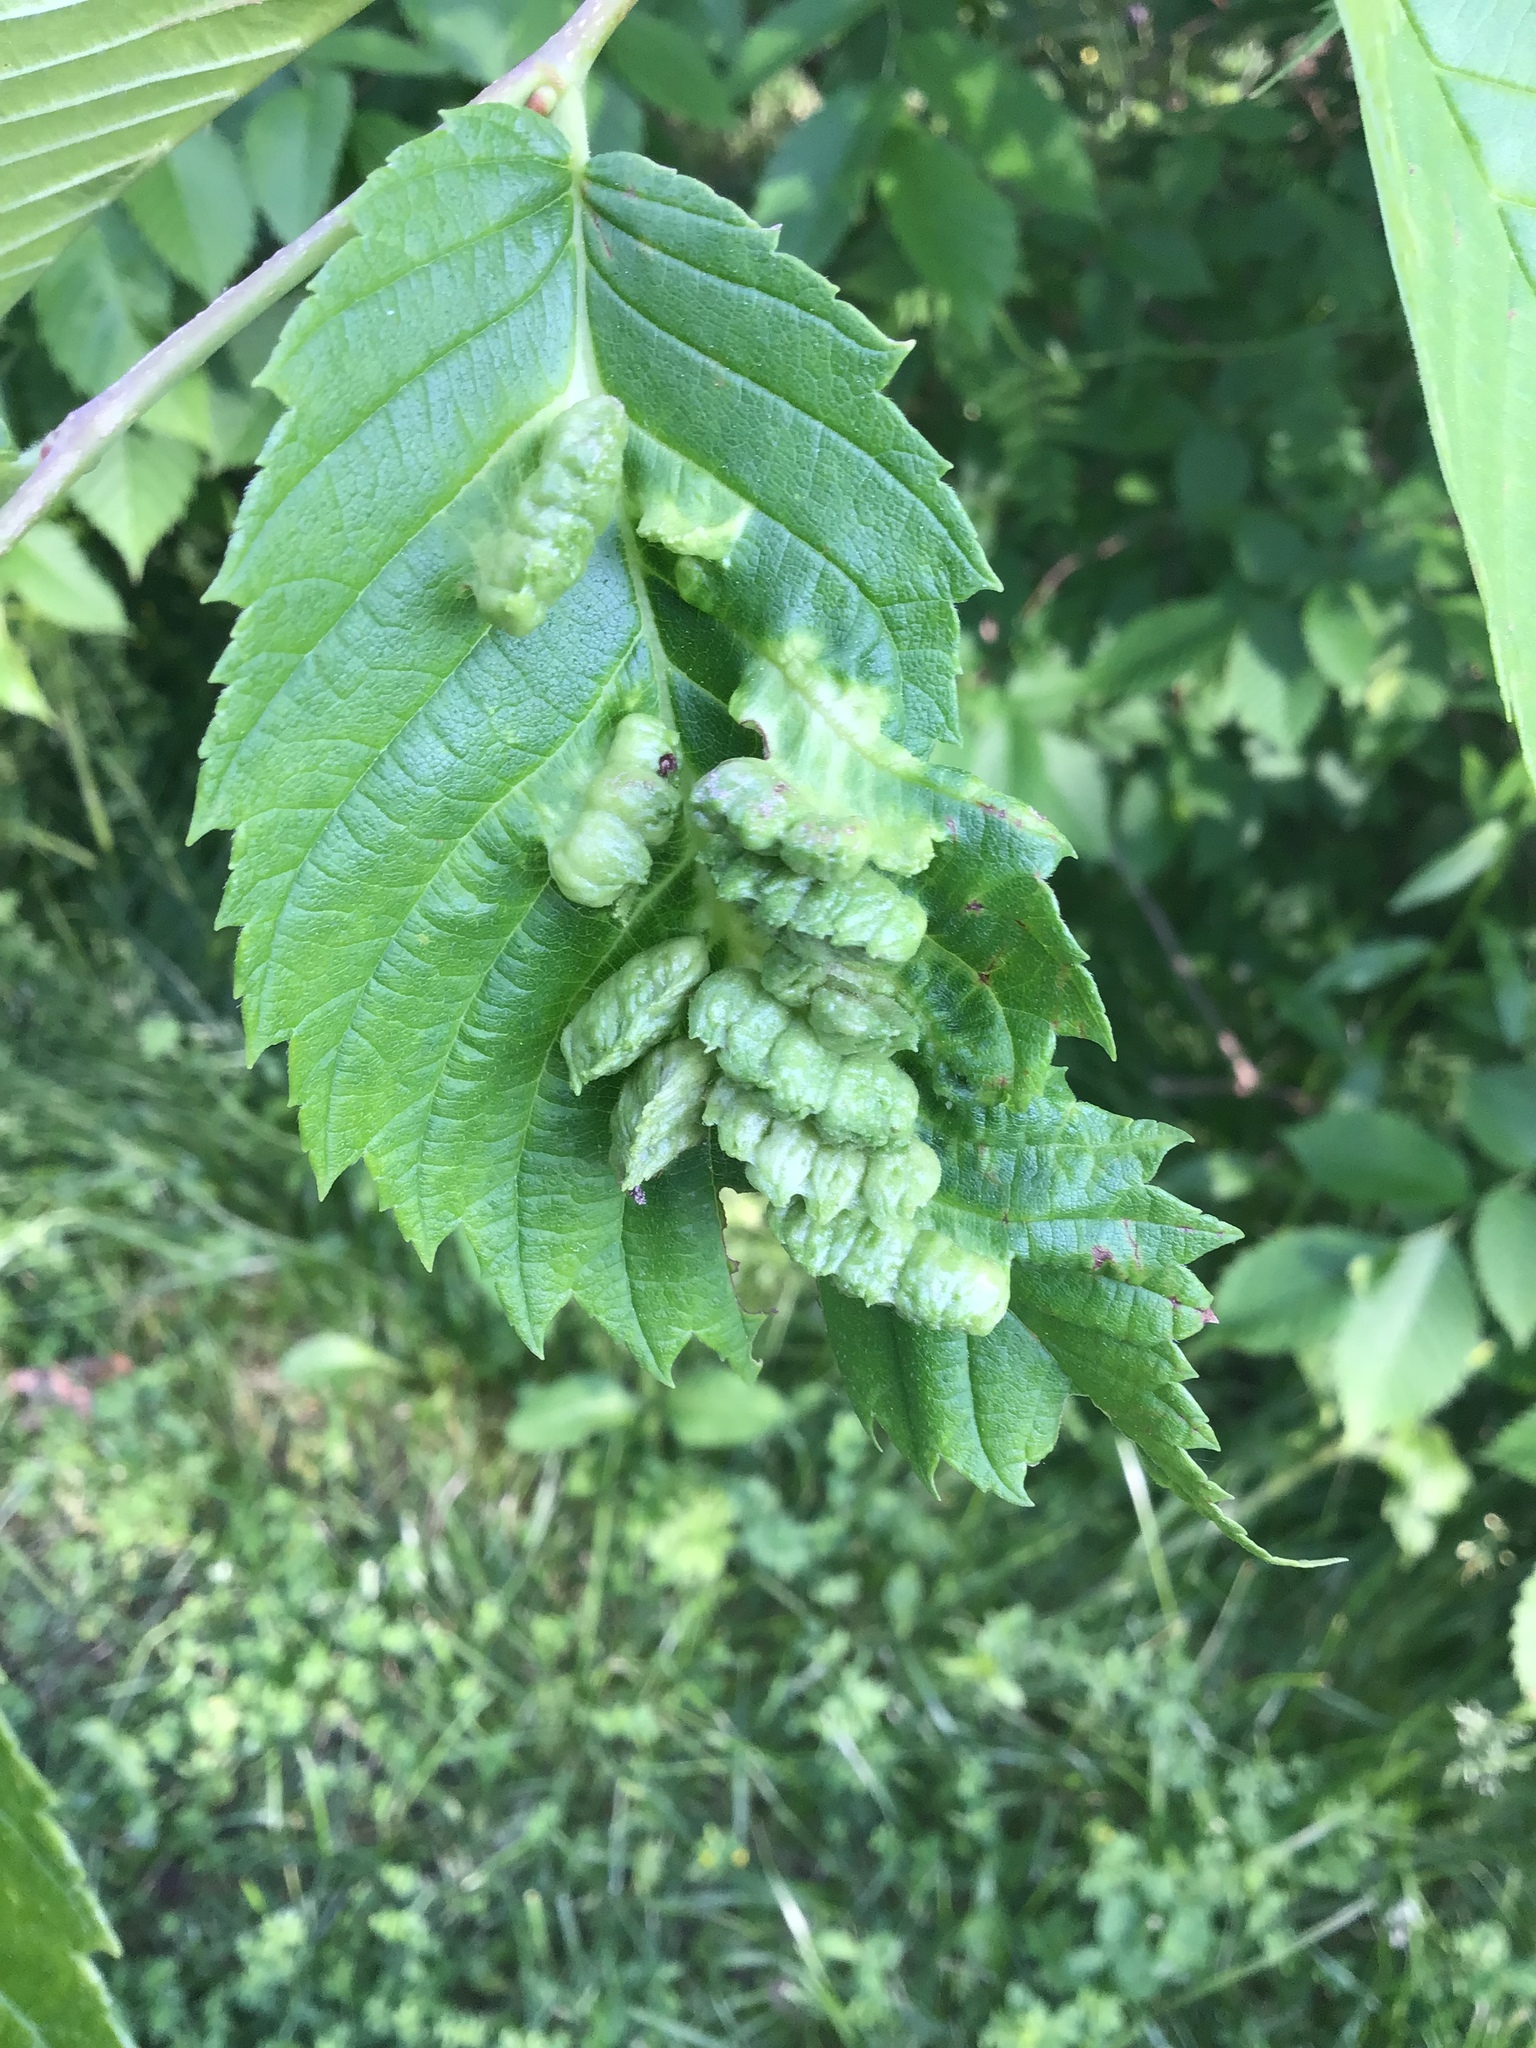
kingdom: Animalia
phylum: Arthropoda
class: Insecta
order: Hemiptera
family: Aphididae
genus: Colopha
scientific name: Colopha ulmicola
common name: Elm cockscombgall aphid
